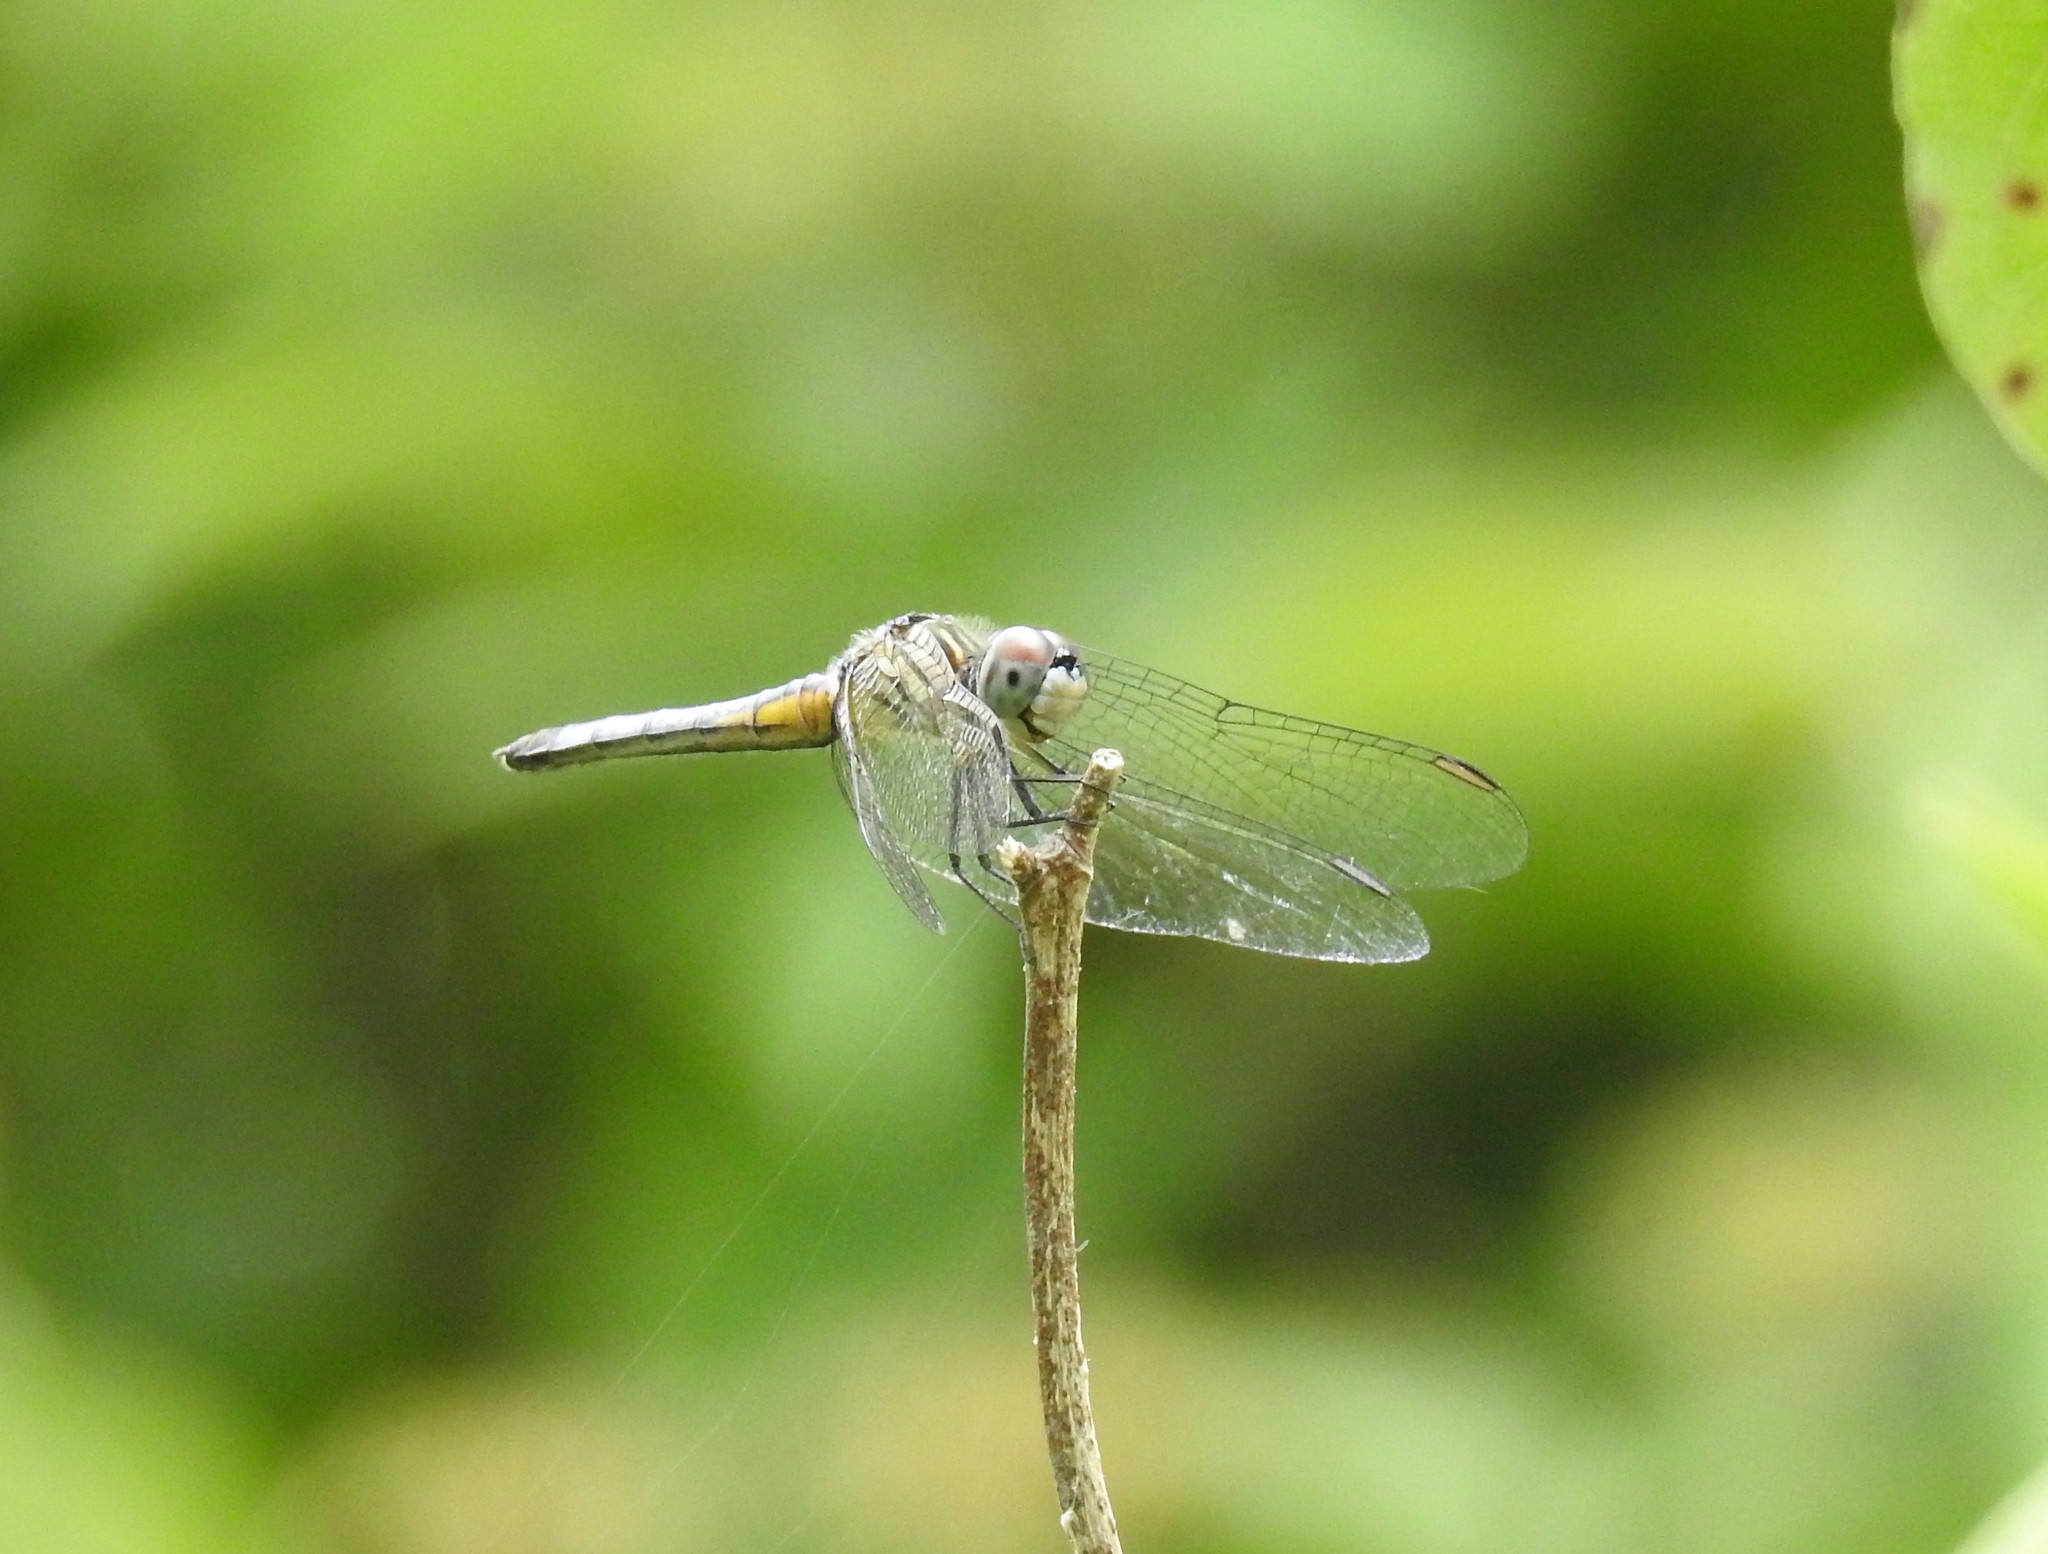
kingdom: Animalia
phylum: Arthropoda
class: Insecta
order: Odonata
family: Libellulidae
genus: Pachydiplax
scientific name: Pachydiplax longipennis
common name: Blue dasher
